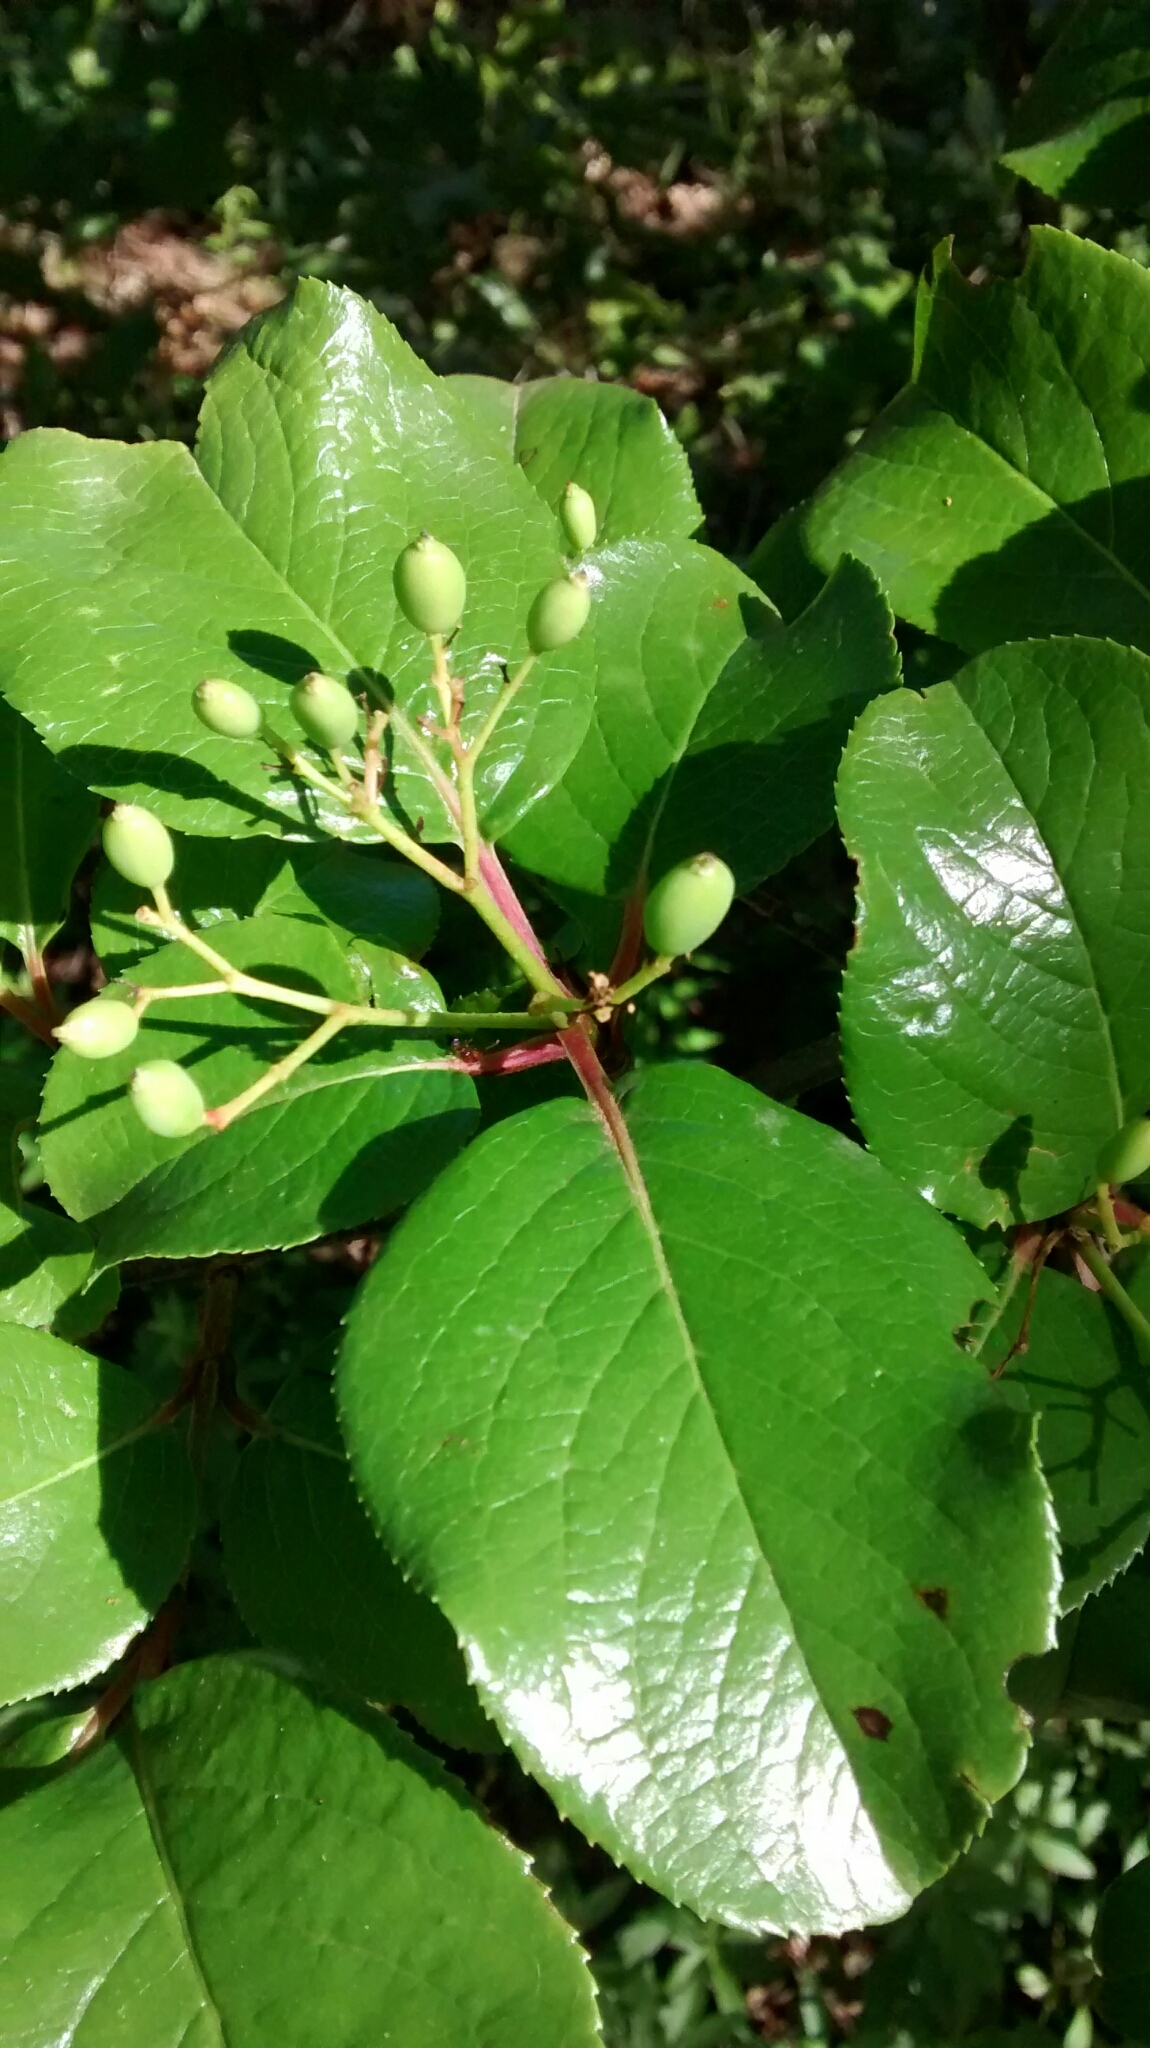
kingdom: Plantae
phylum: Tracheophyta
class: Magnoliopsida
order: Dipsacales
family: Viburnaceae
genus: Viburnum
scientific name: Viburnum rufidulum
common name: Blue haw
